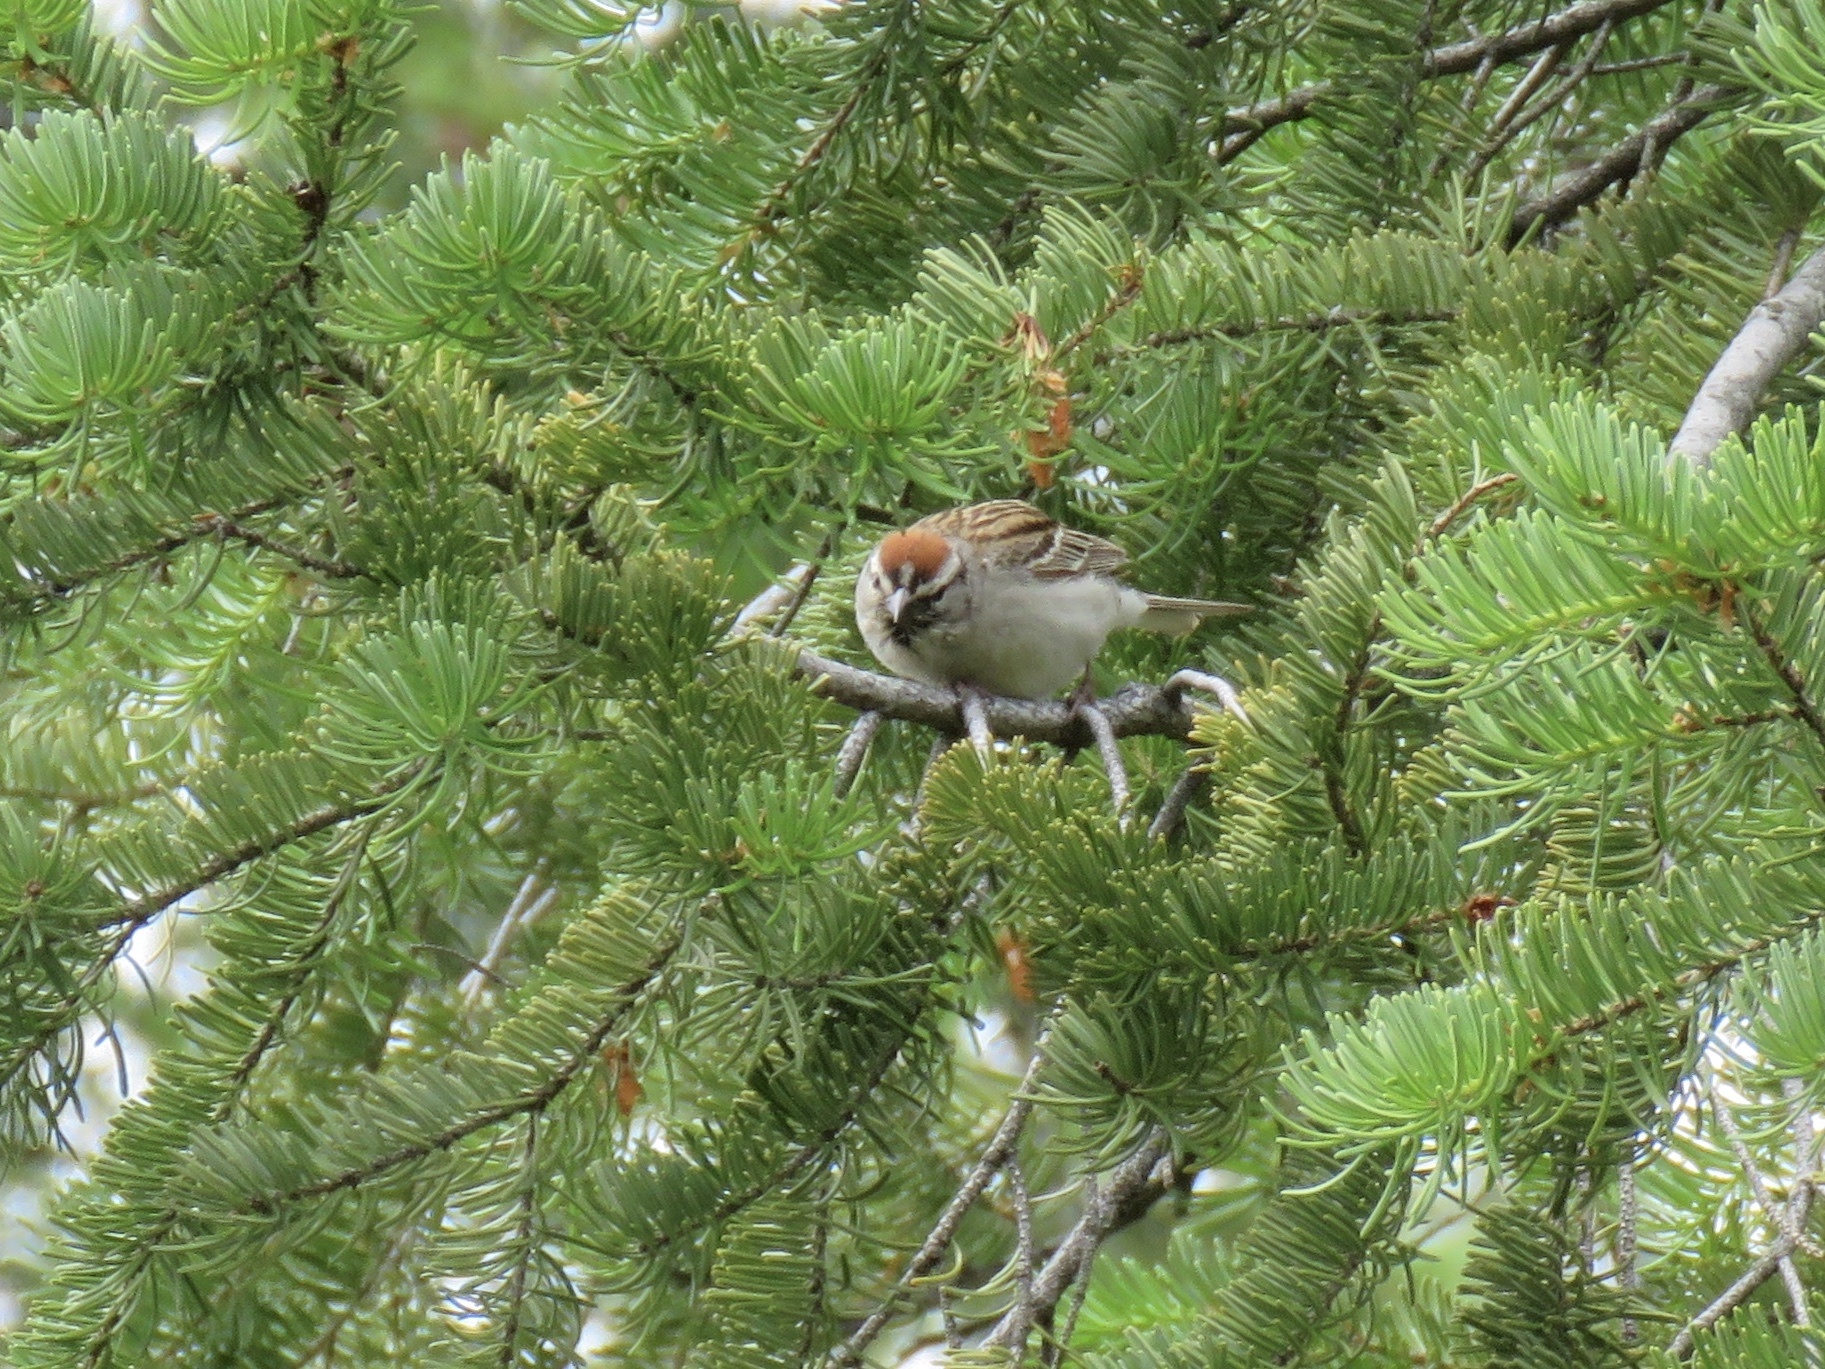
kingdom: Animalia
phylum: Chordata
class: Aves
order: Passeriformes
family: Passerellidae
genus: Spizella
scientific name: Spizella passerina
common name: Chipping sparrow
